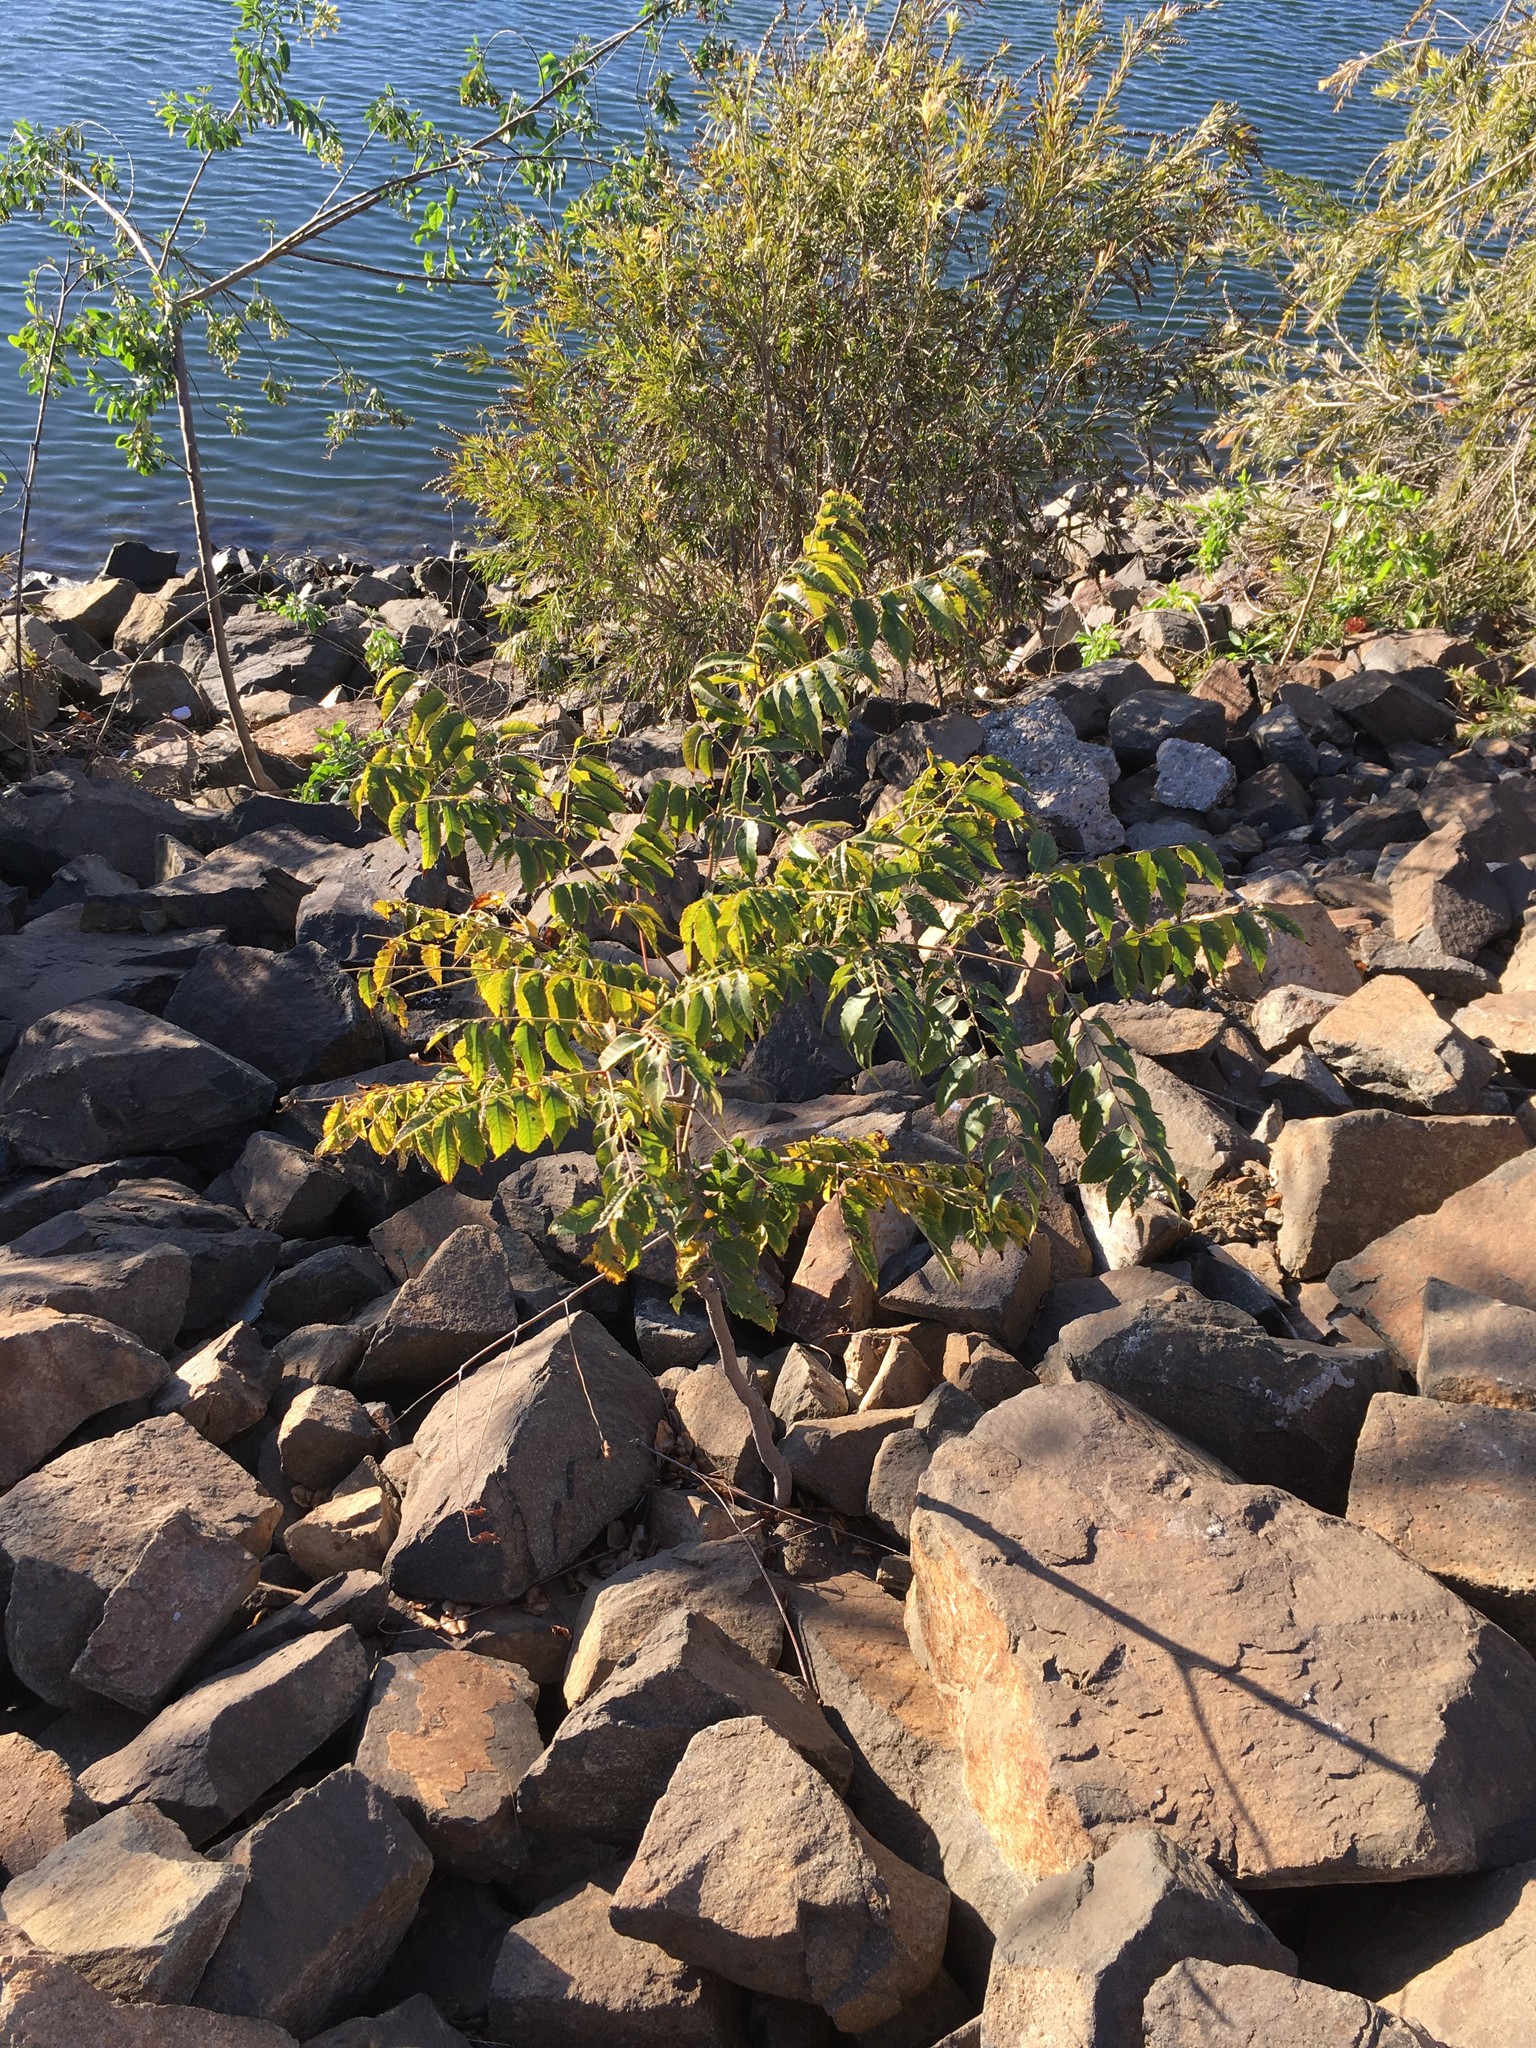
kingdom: Plantae
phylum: Tracheophyta
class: Magnoliopsida
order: Sapindales
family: Sapindaceae
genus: Koelreuteria
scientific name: Koelreuteria paniculata
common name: Pride-of-india
